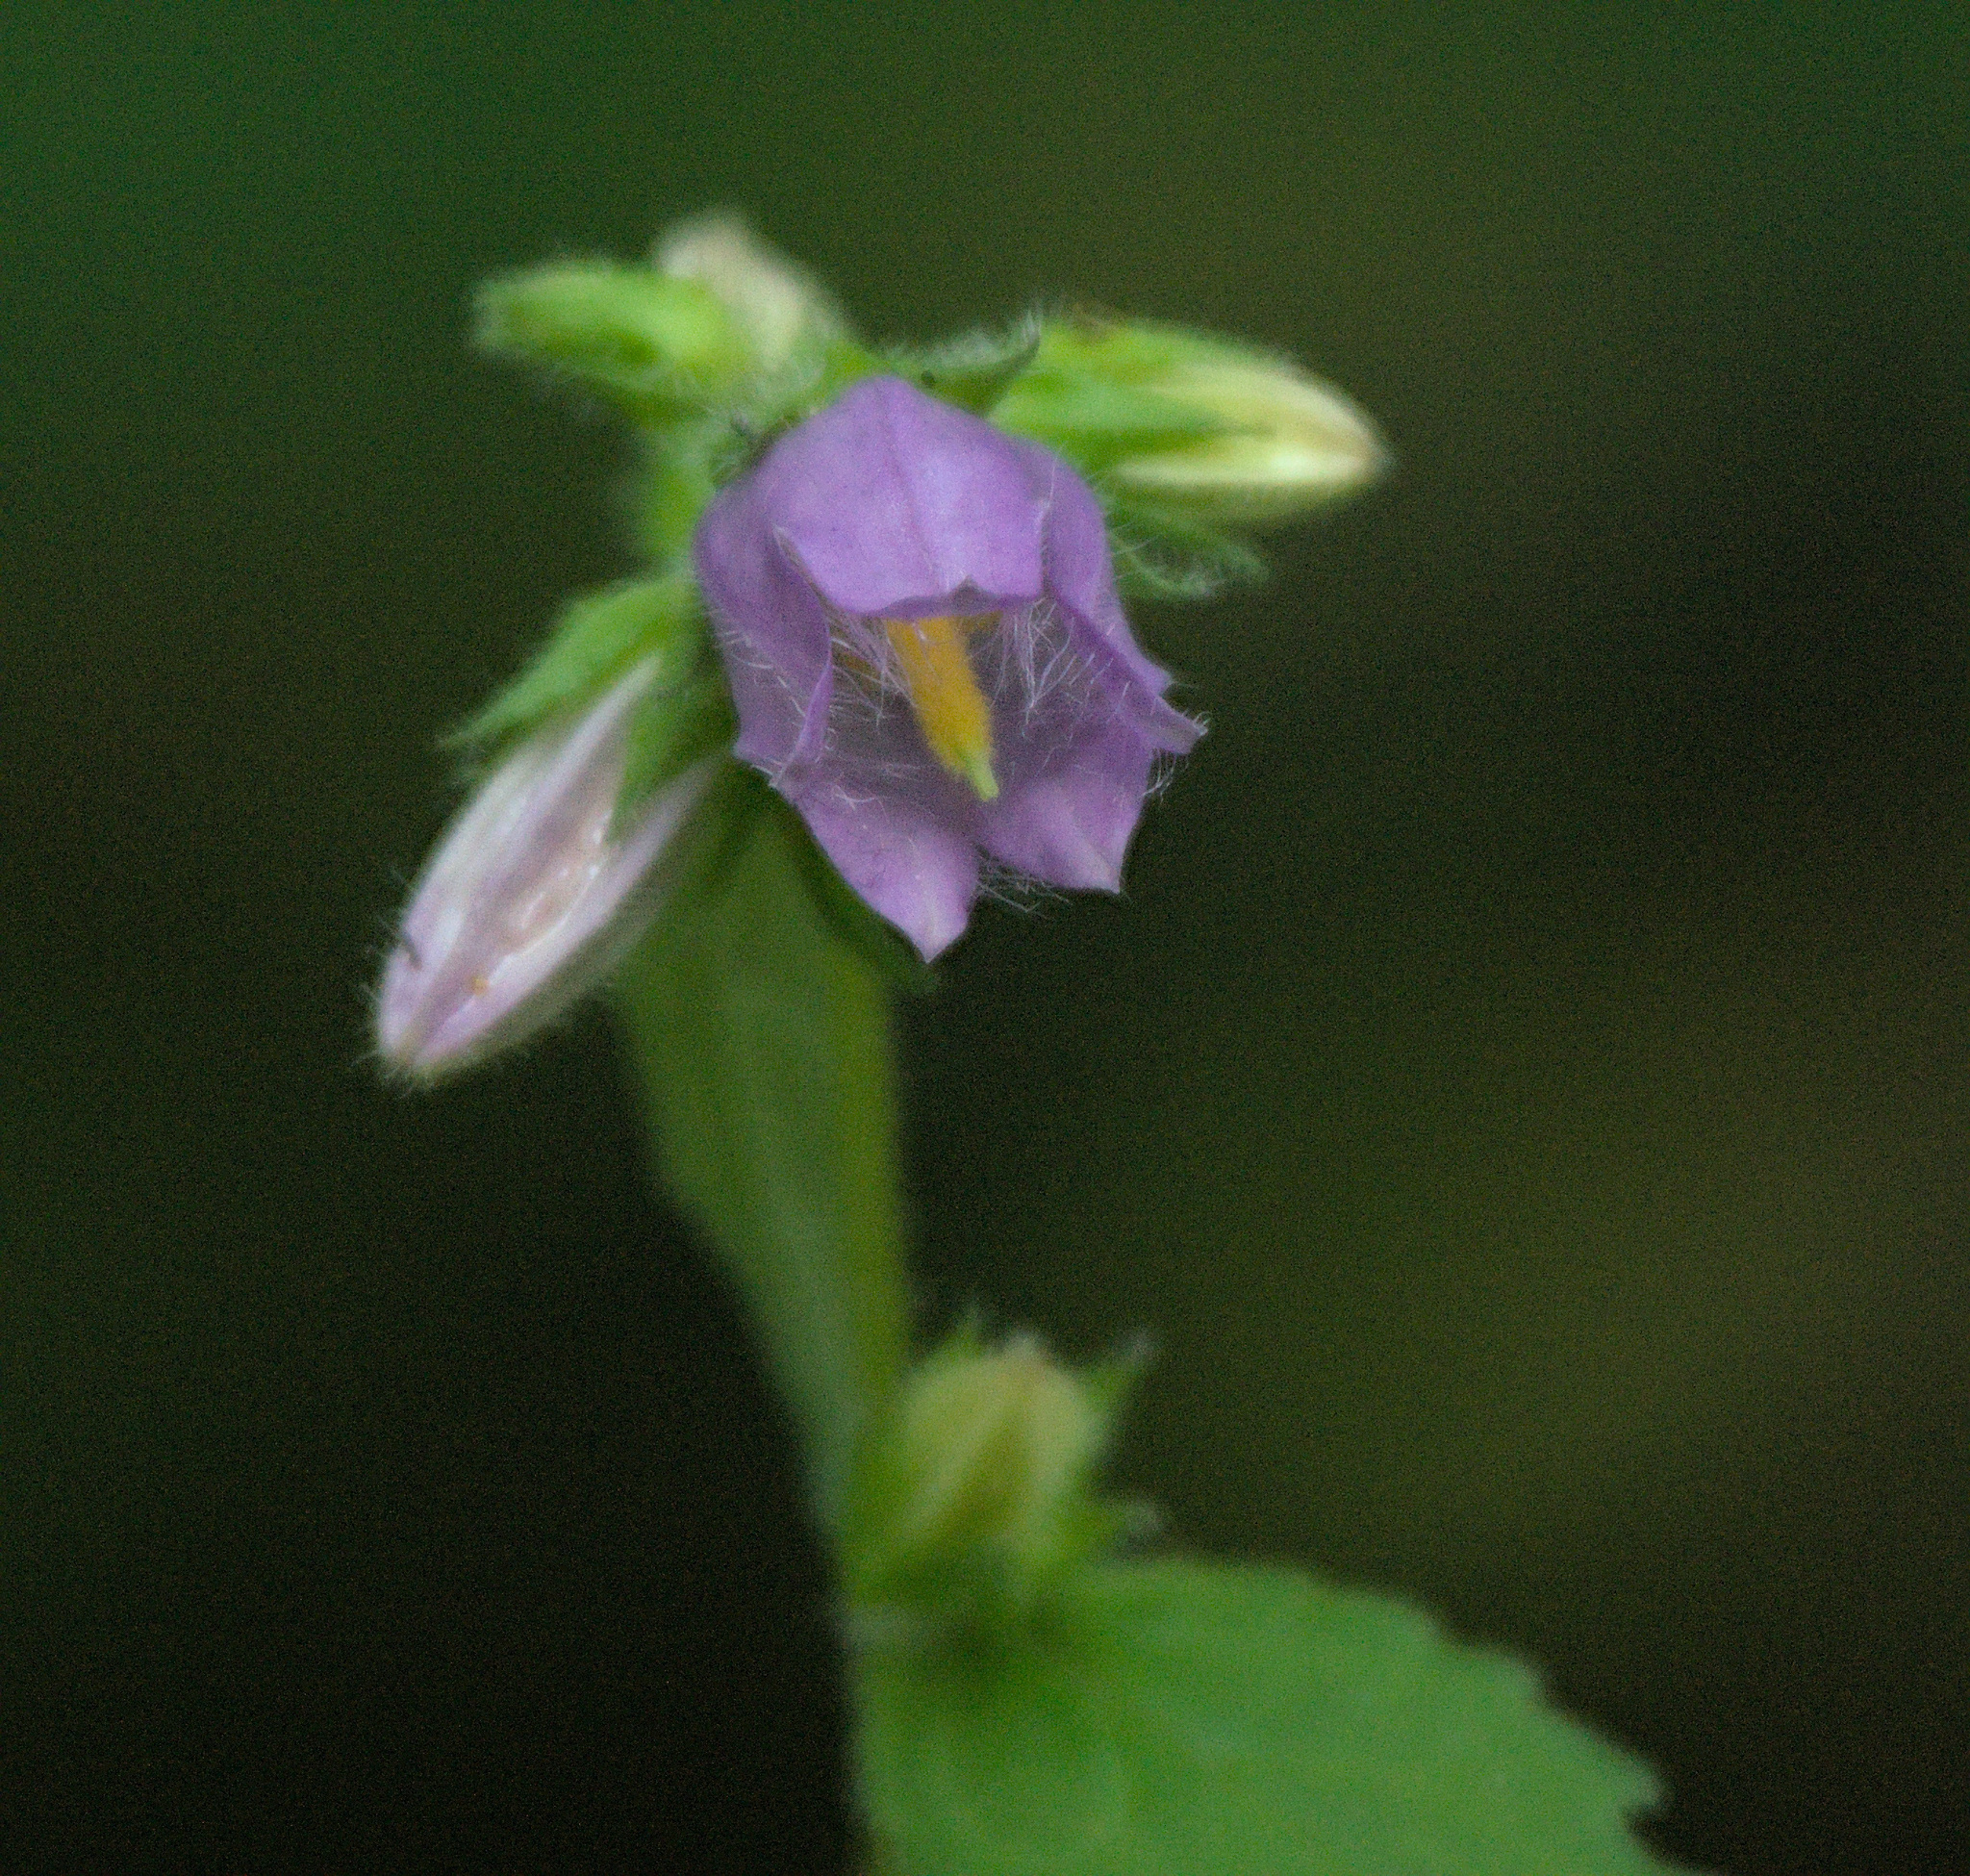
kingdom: Plantae
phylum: Tracheophyta
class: Magnoliopsida
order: Asterales
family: Campanulaceae
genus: Campanula
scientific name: Campanula trachelium
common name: Nettle-leaved bellflower
